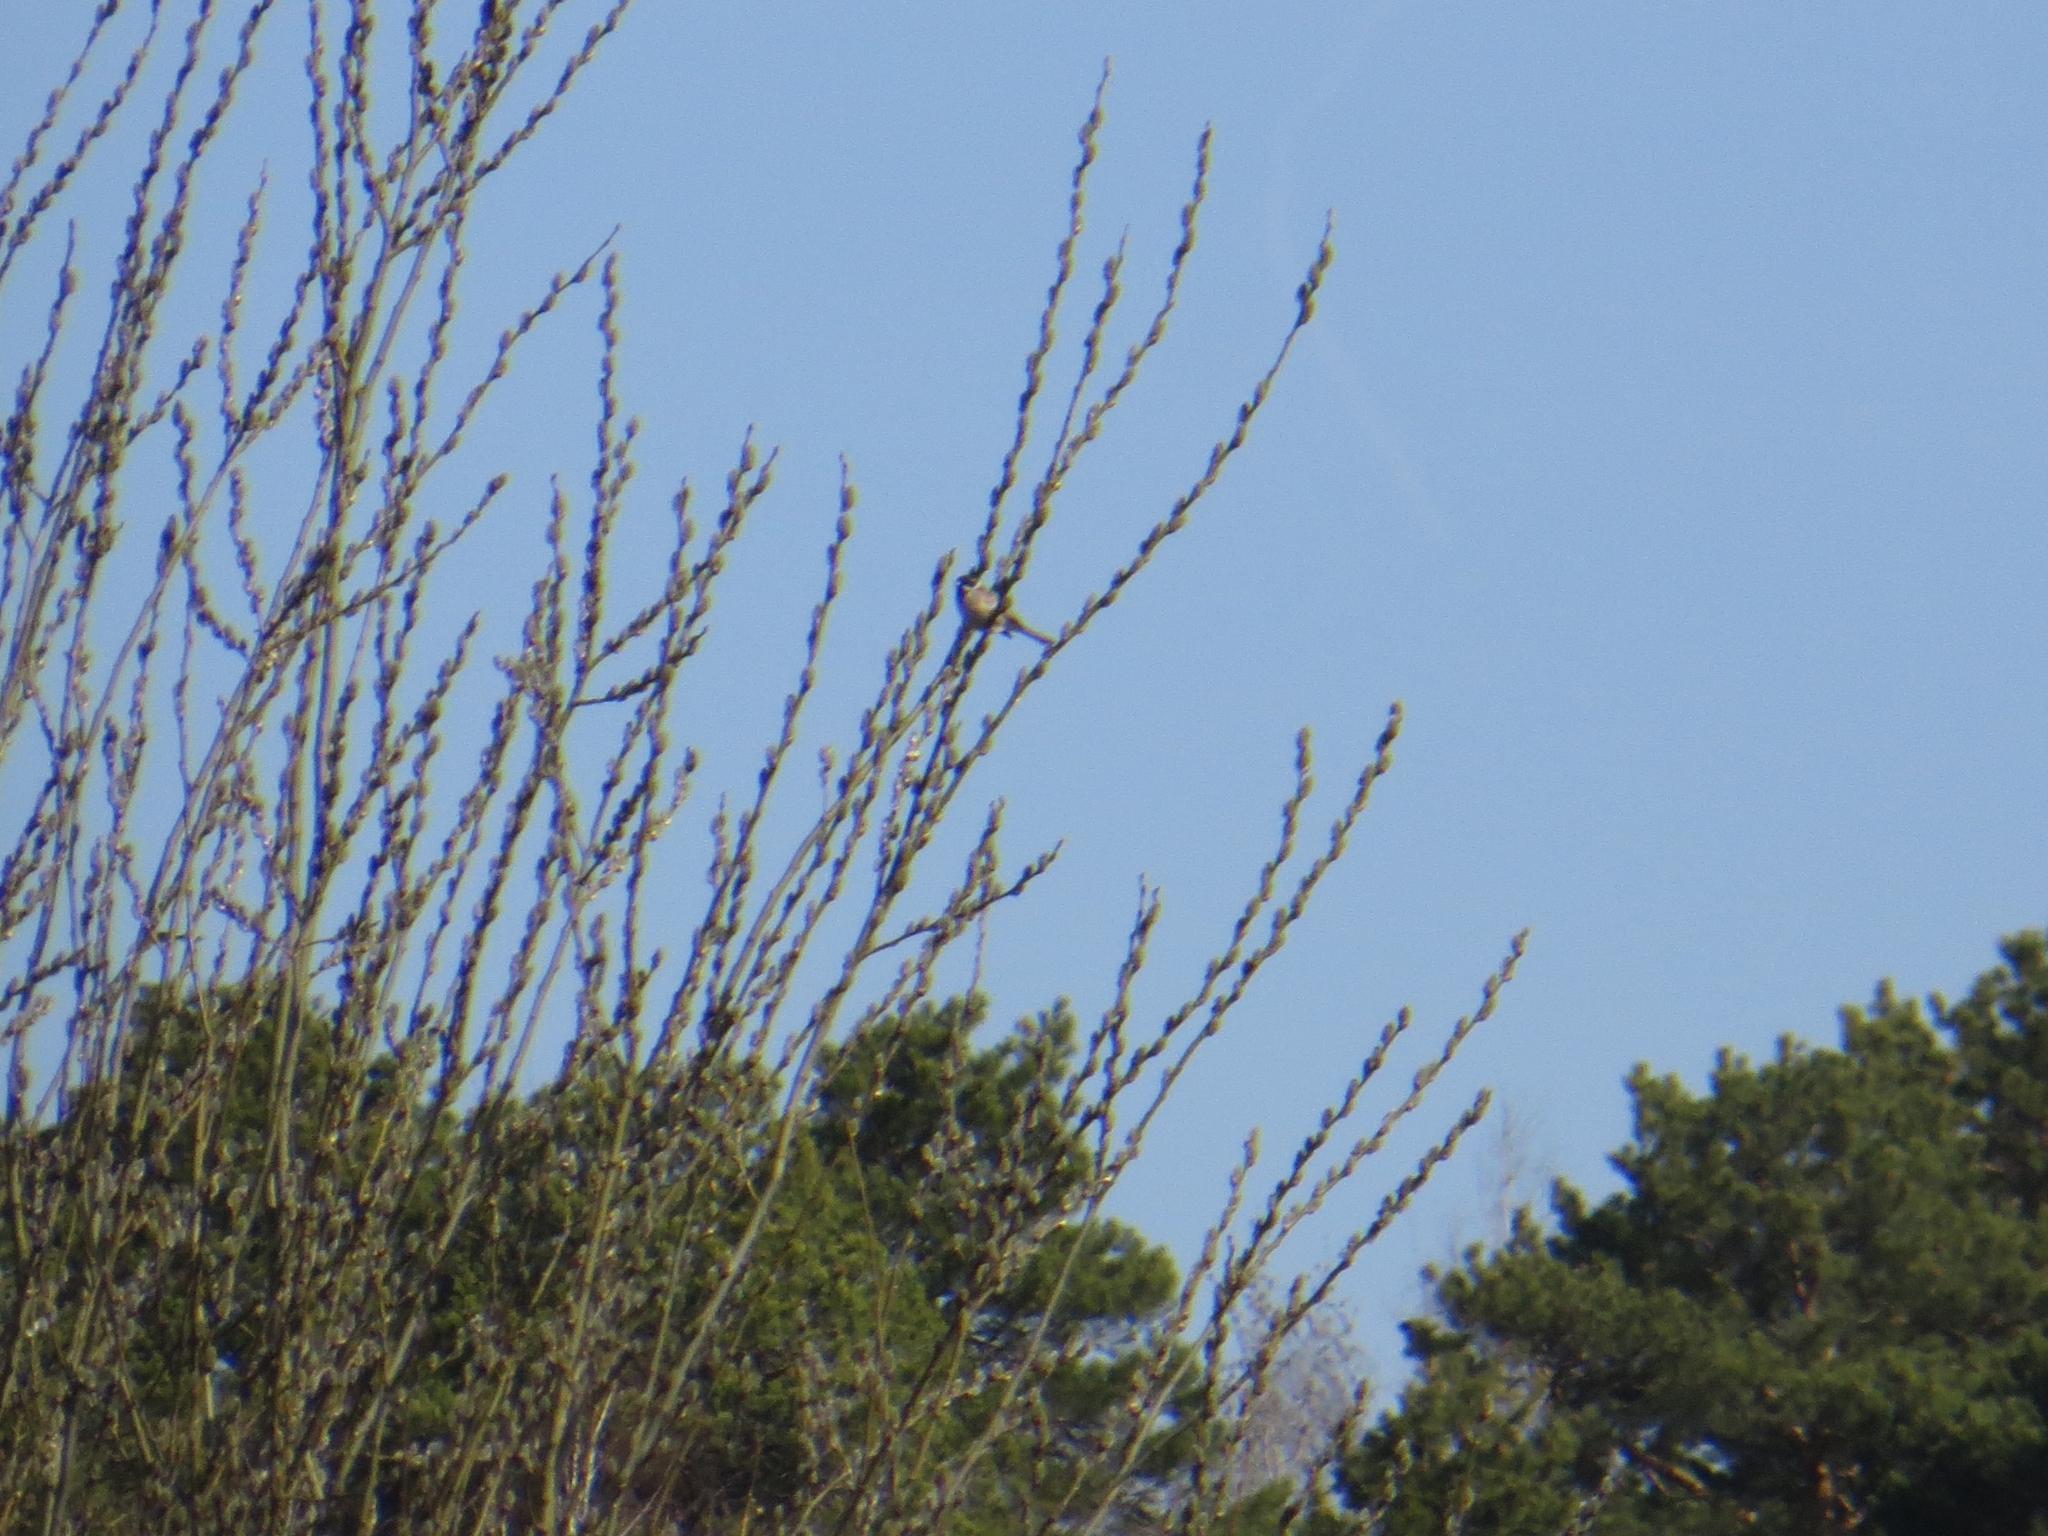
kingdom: Animalia
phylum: Chordata
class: Aves
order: Passeriformes
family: Emberizidae
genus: Emberiza
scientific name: Emberiza schoeniclus
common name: Reed bunting
